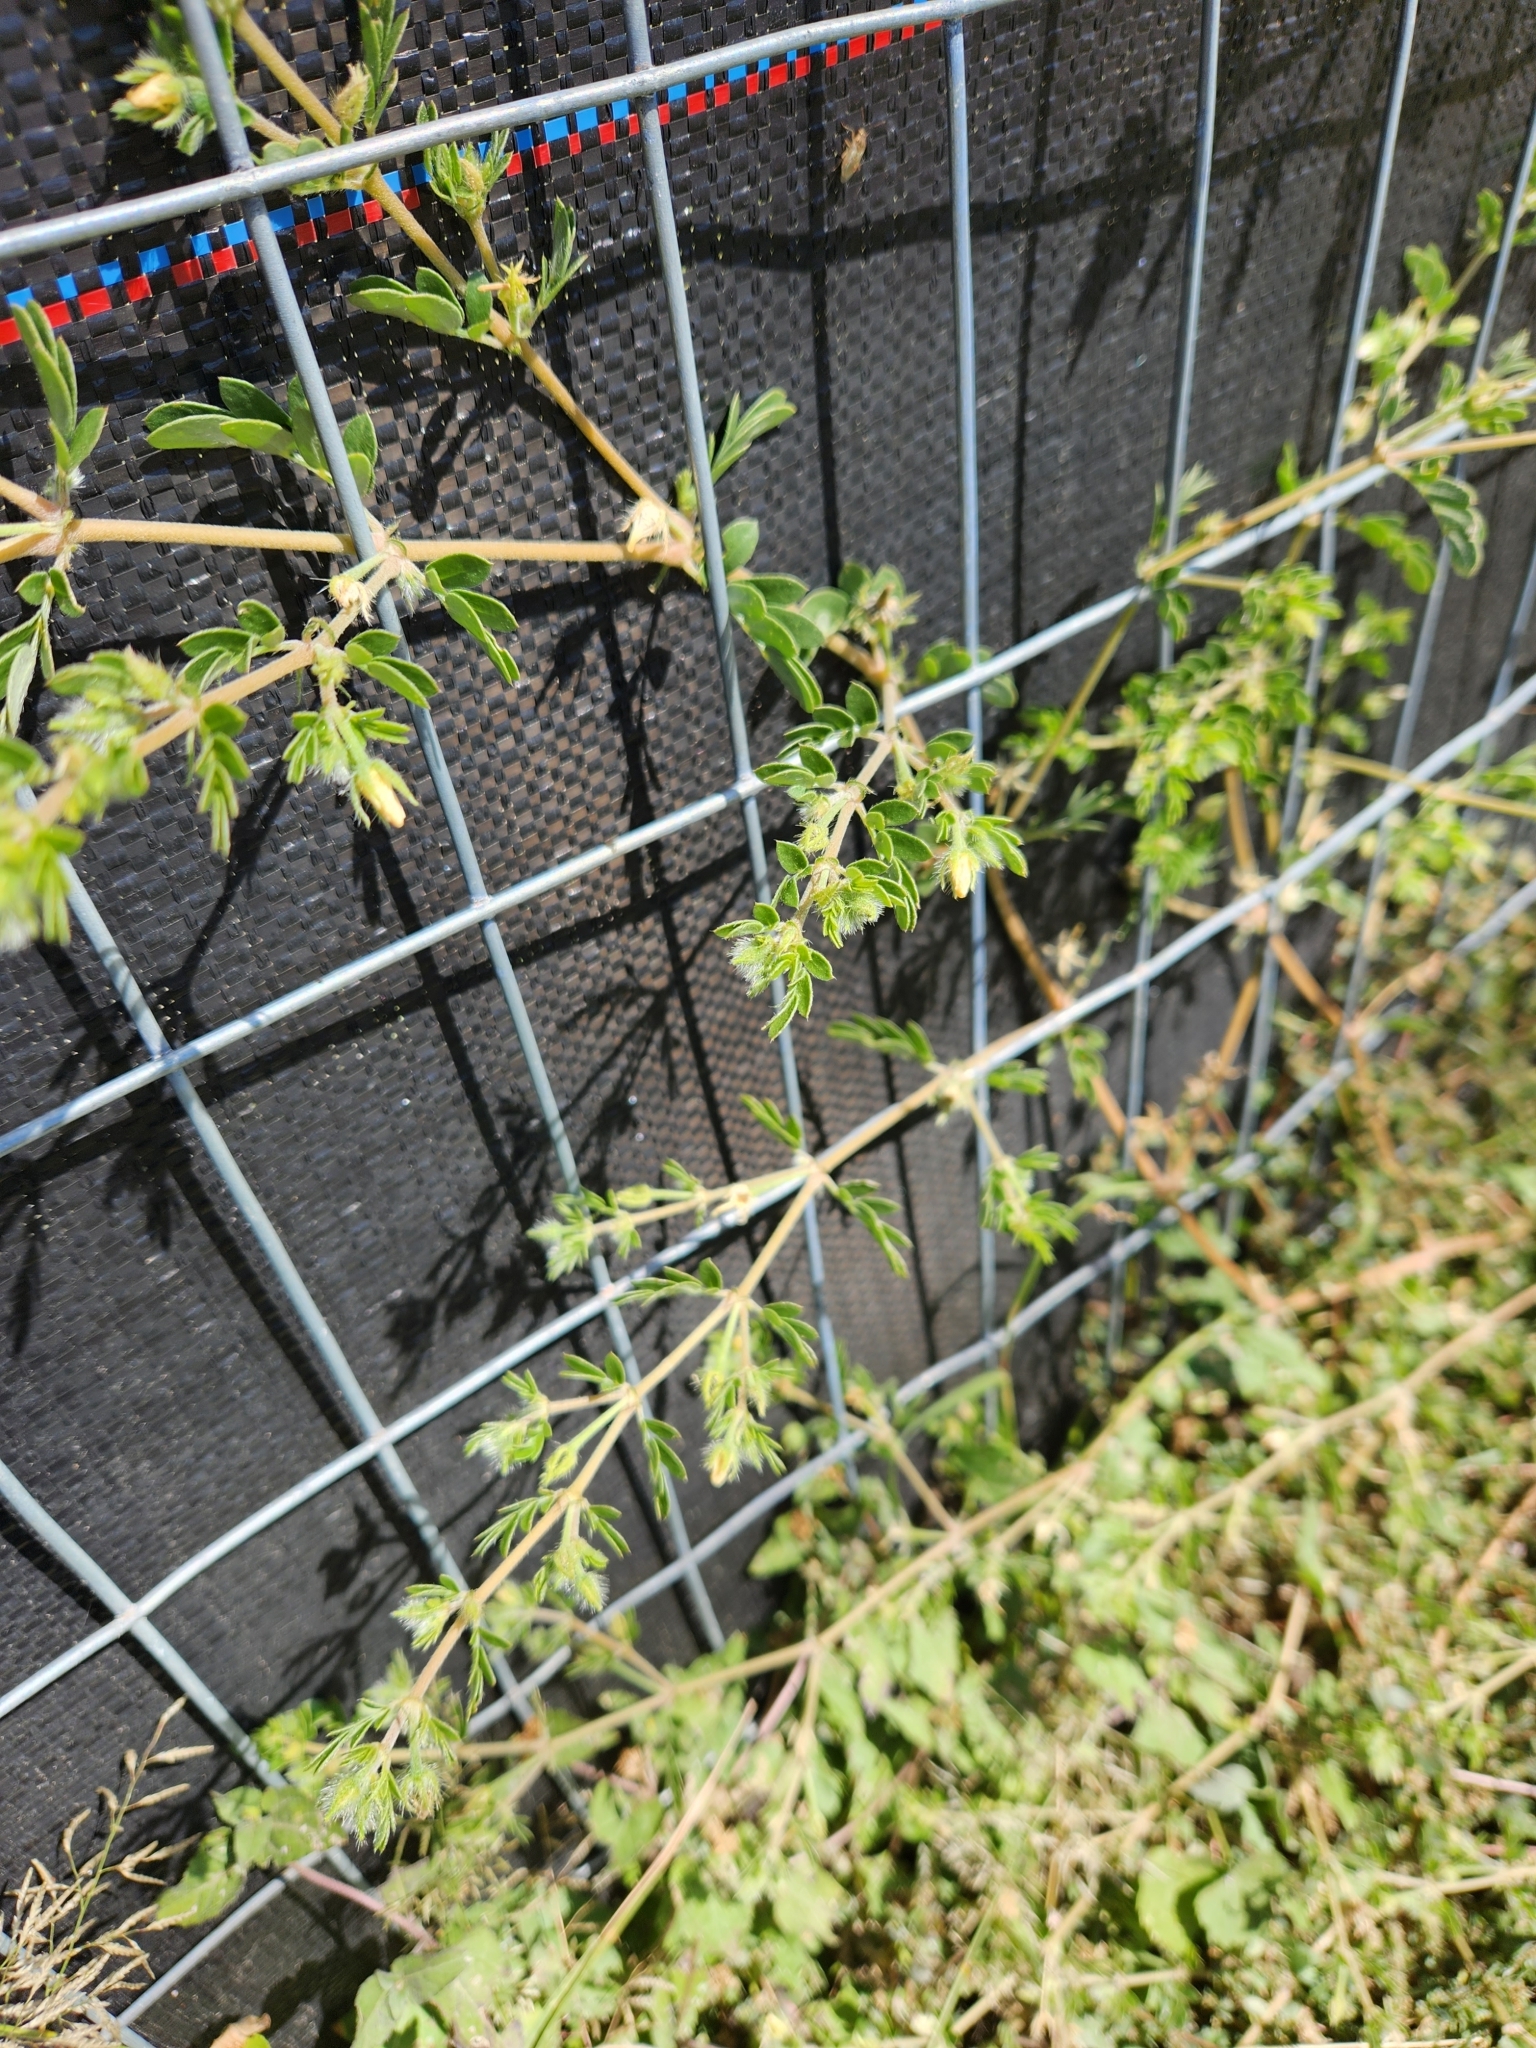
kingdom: Plantae
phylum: Tracheophyta
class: Magnoliopsida
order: Zygophyllales
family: Zygophyllaceae
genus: Kallstroemia
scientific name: Kallstroemia parviflora
